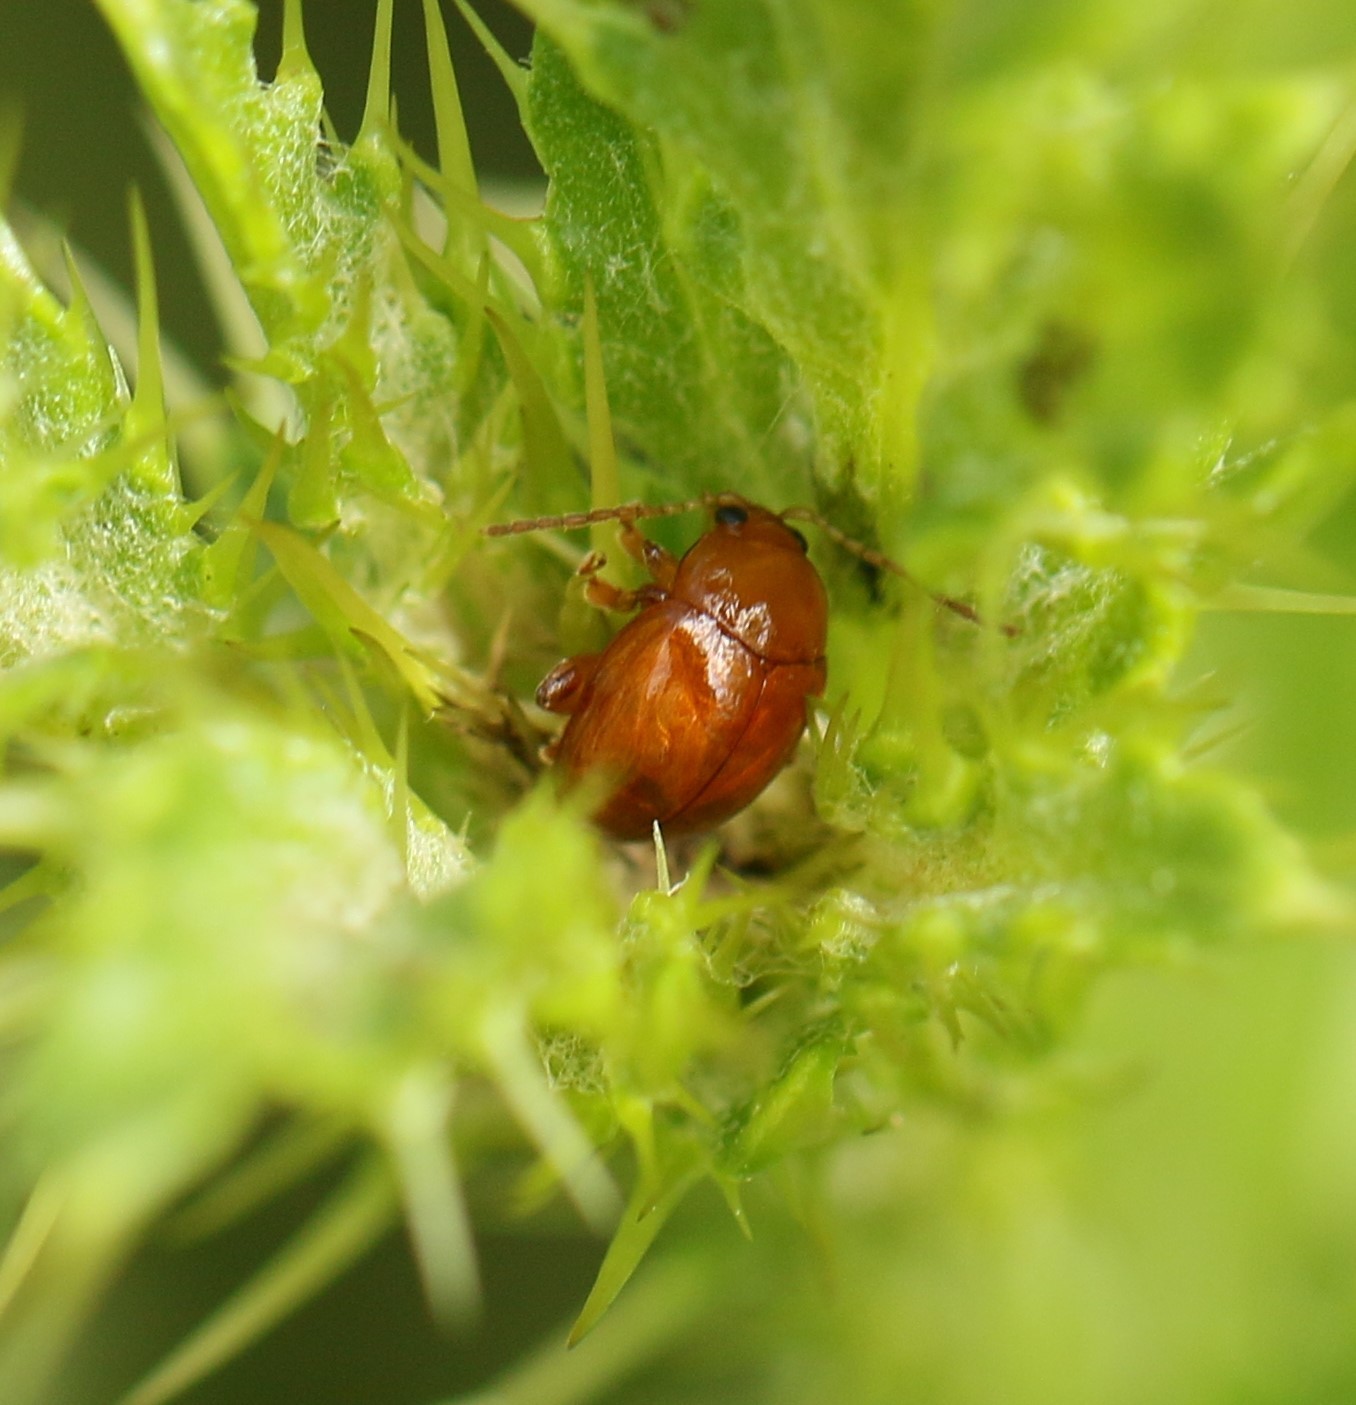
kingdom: Animalia
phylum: Arthropoda
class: Insecta
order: Coleoptera
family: Chrysomelidae
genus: Pistosia
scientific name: Pistosia testacea
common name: Leaf beetle
